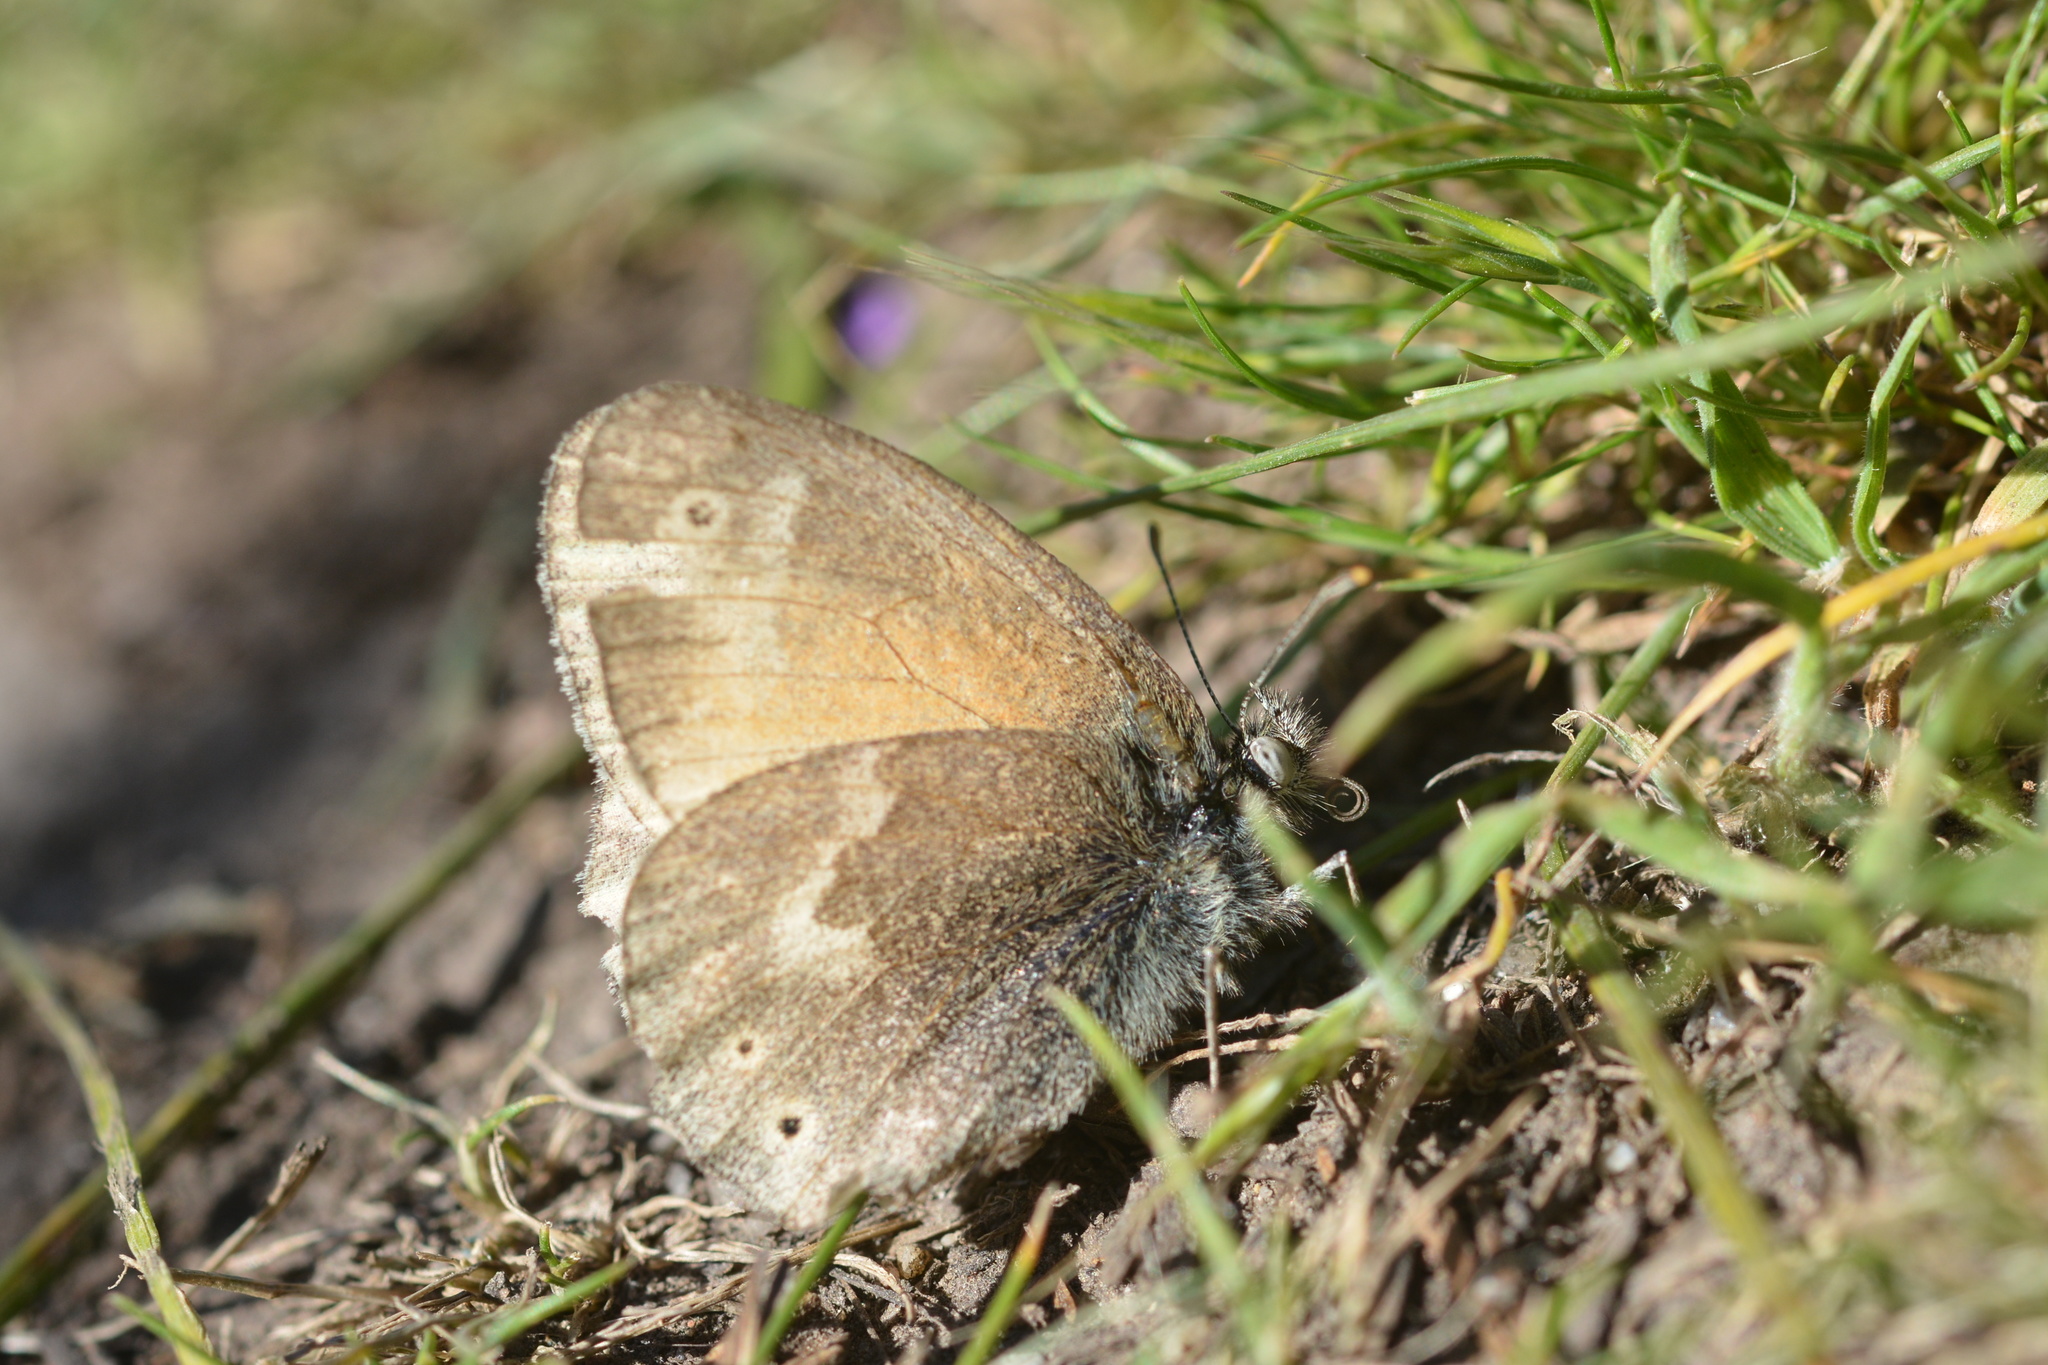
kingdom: Animalia
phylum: Arthropoda
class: Insecta
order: Lepidoptera
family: Nymphalidae
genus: Coenonympha
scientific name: Coenonympha california
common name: Common ringlet
